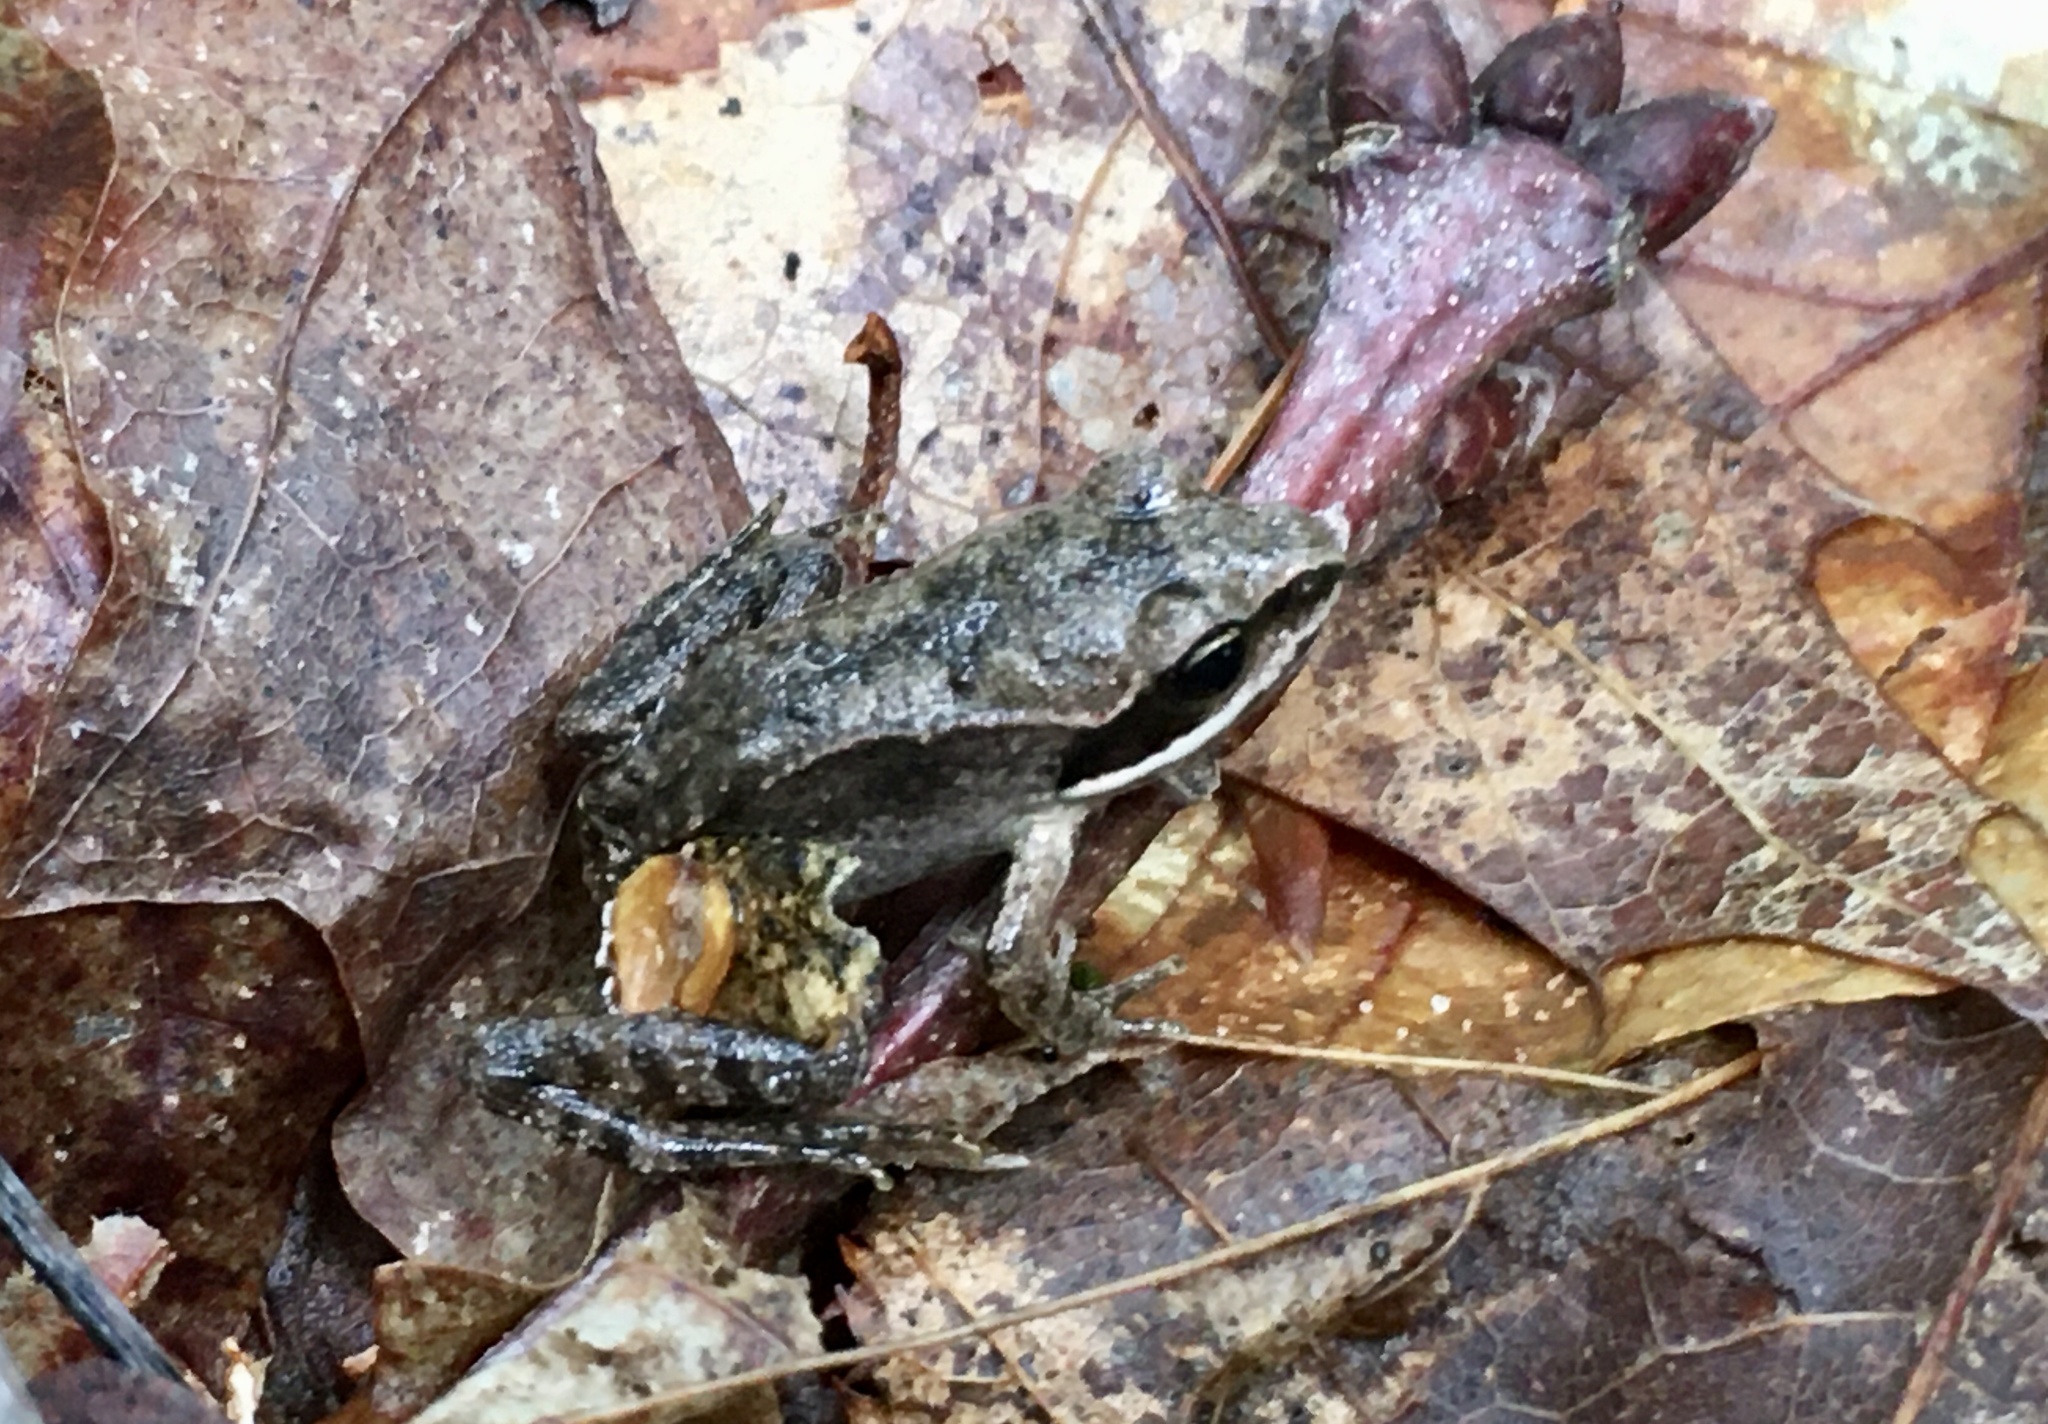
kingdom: Animalia
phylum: Chordata
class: Amphibia
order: Anura
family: Ranidae
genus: Lithobates
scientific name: Lithobates sylvaticus
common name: Wood frog
